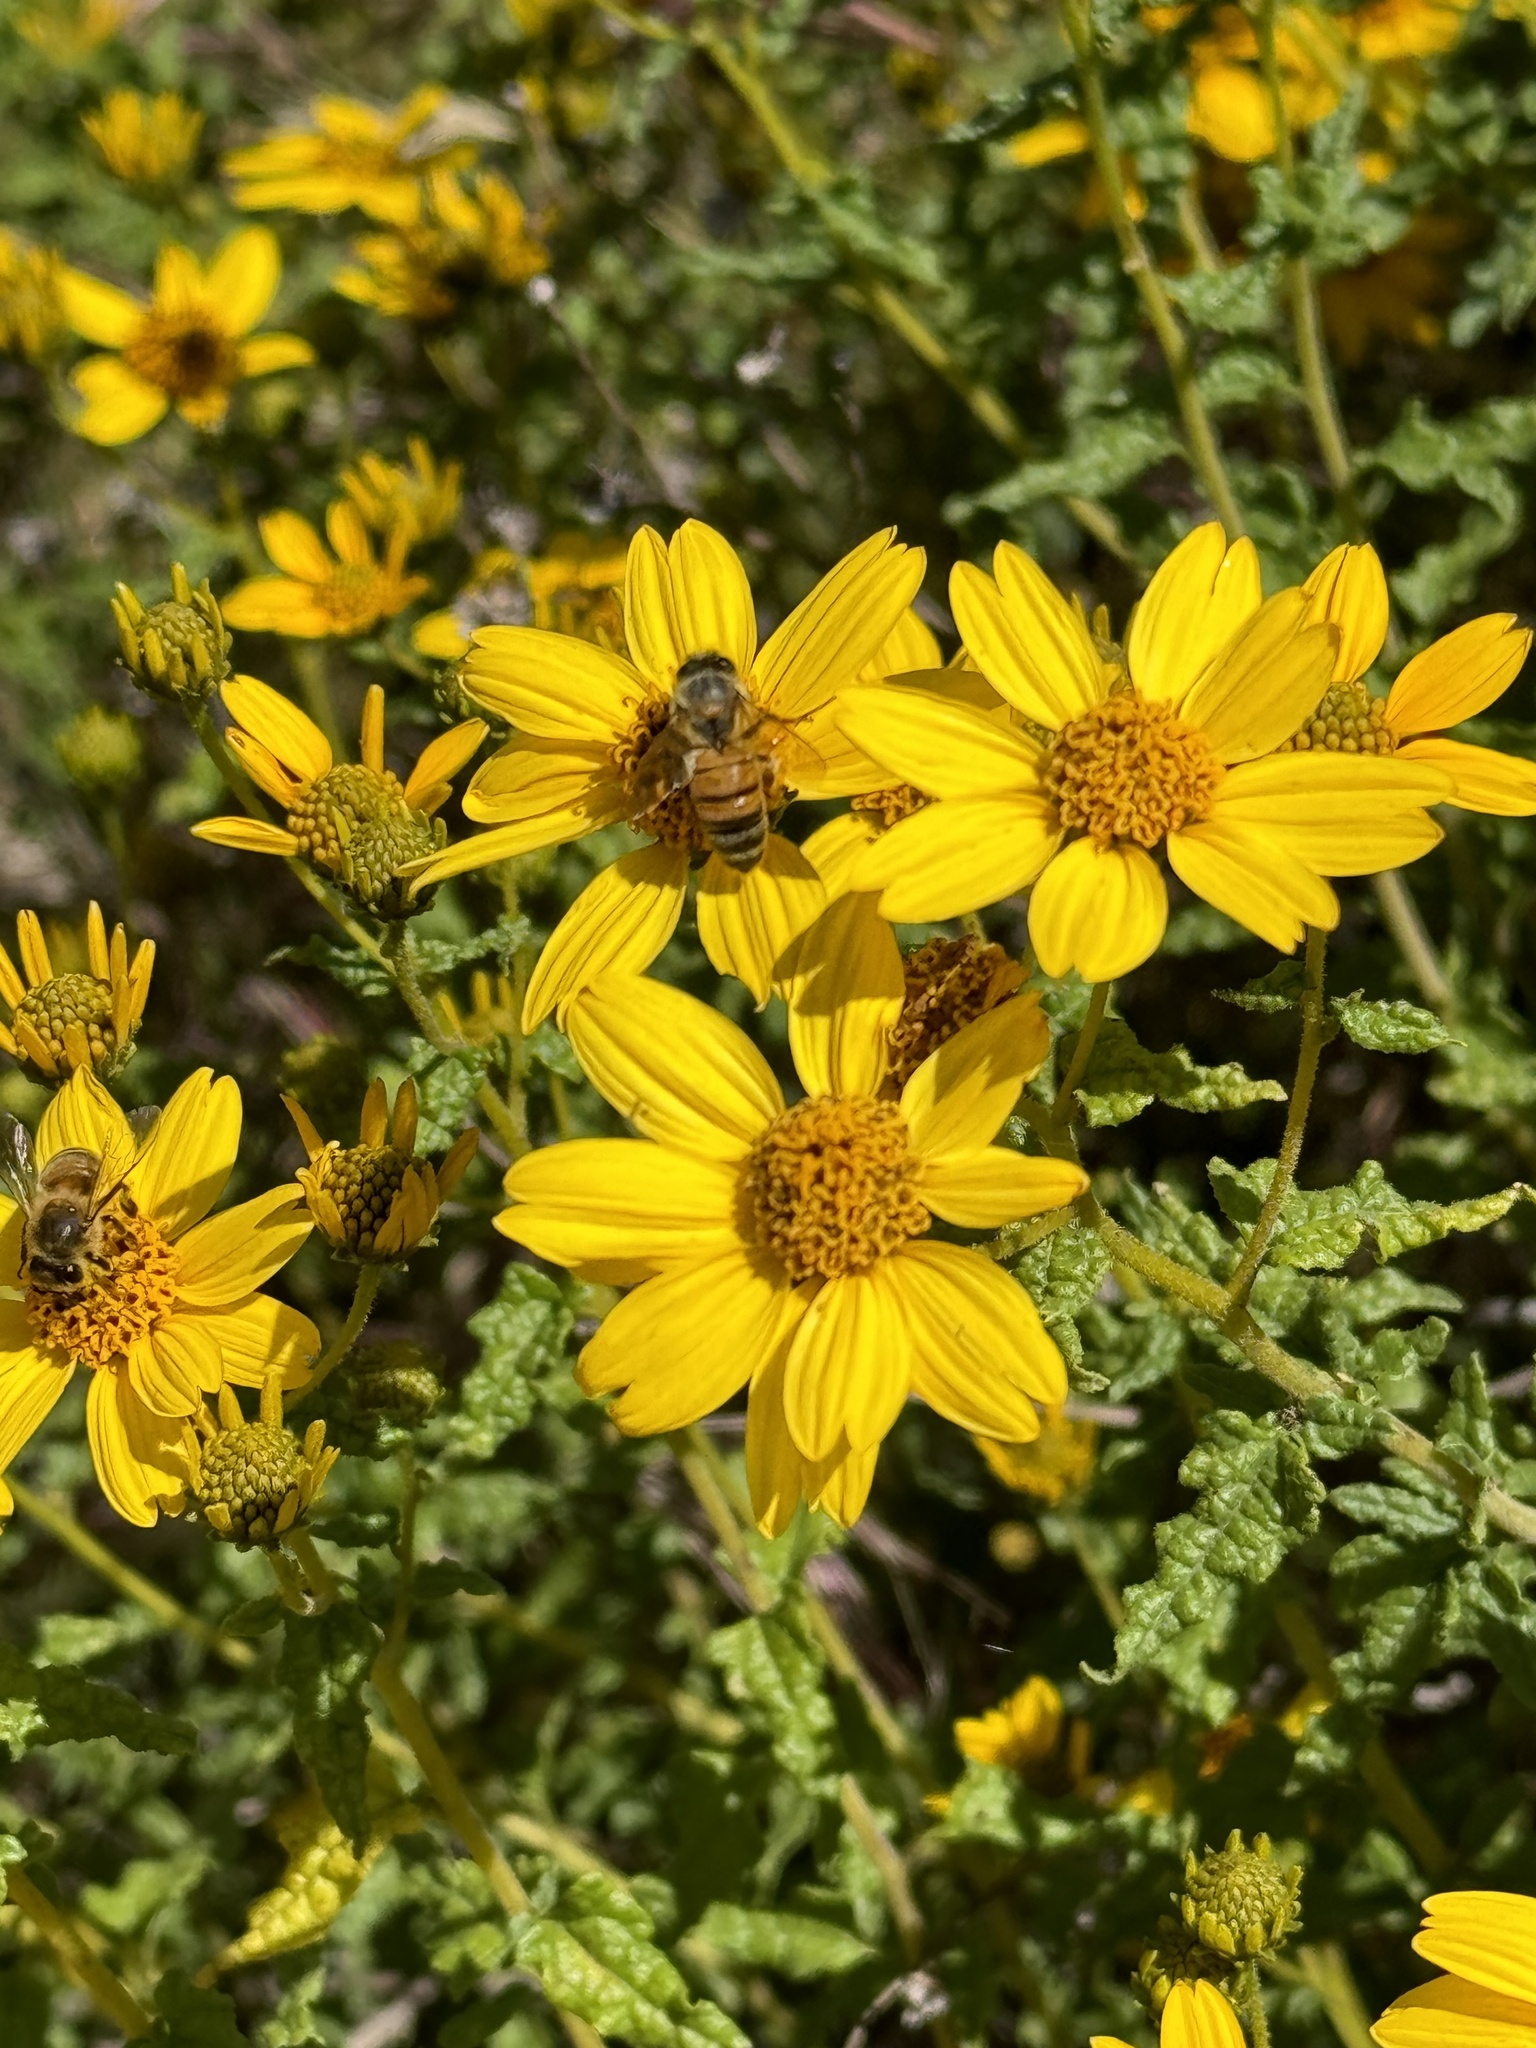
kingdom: Animalia
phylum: Arthropoda
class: Insecta
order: Hymenoptera
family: Apidae
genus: Apis
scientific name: Apis mellifera
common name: Honey bee
